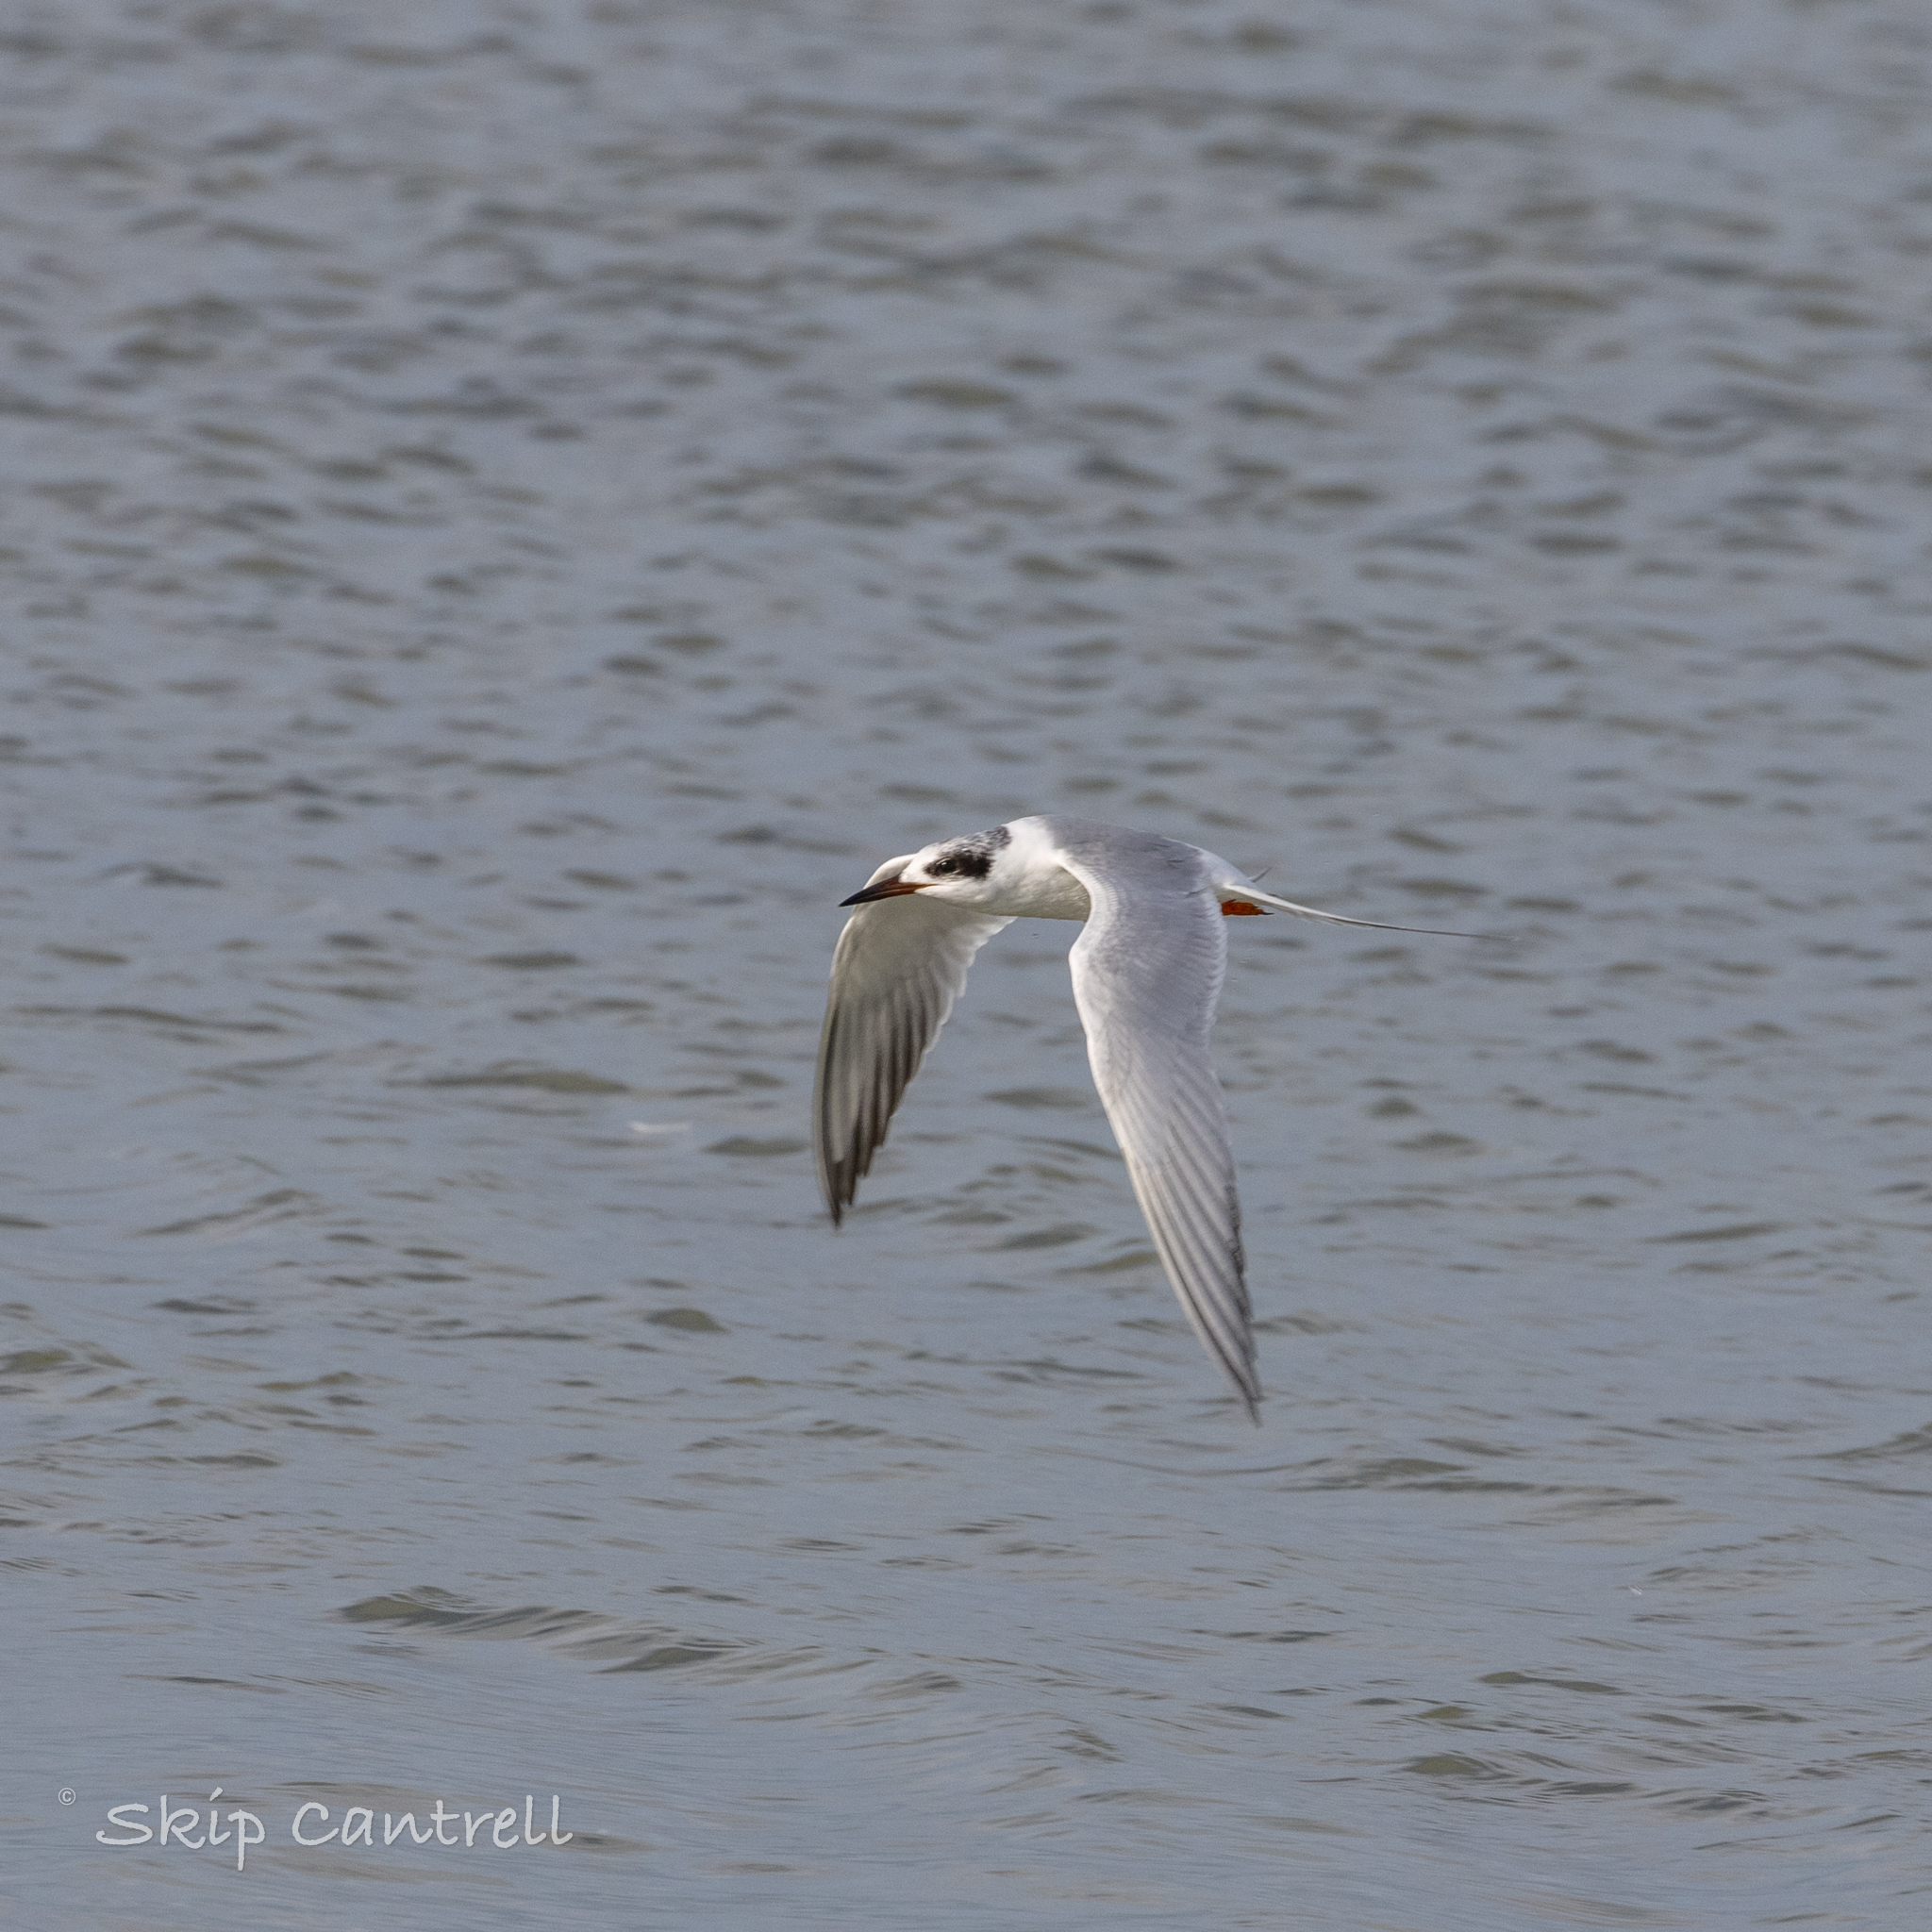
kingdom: Animalia
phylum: Chordata
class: Aves
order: Charadriiformes
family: Laridae
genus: Sterna
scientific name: Sterna forsteri
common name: Forster's tern
